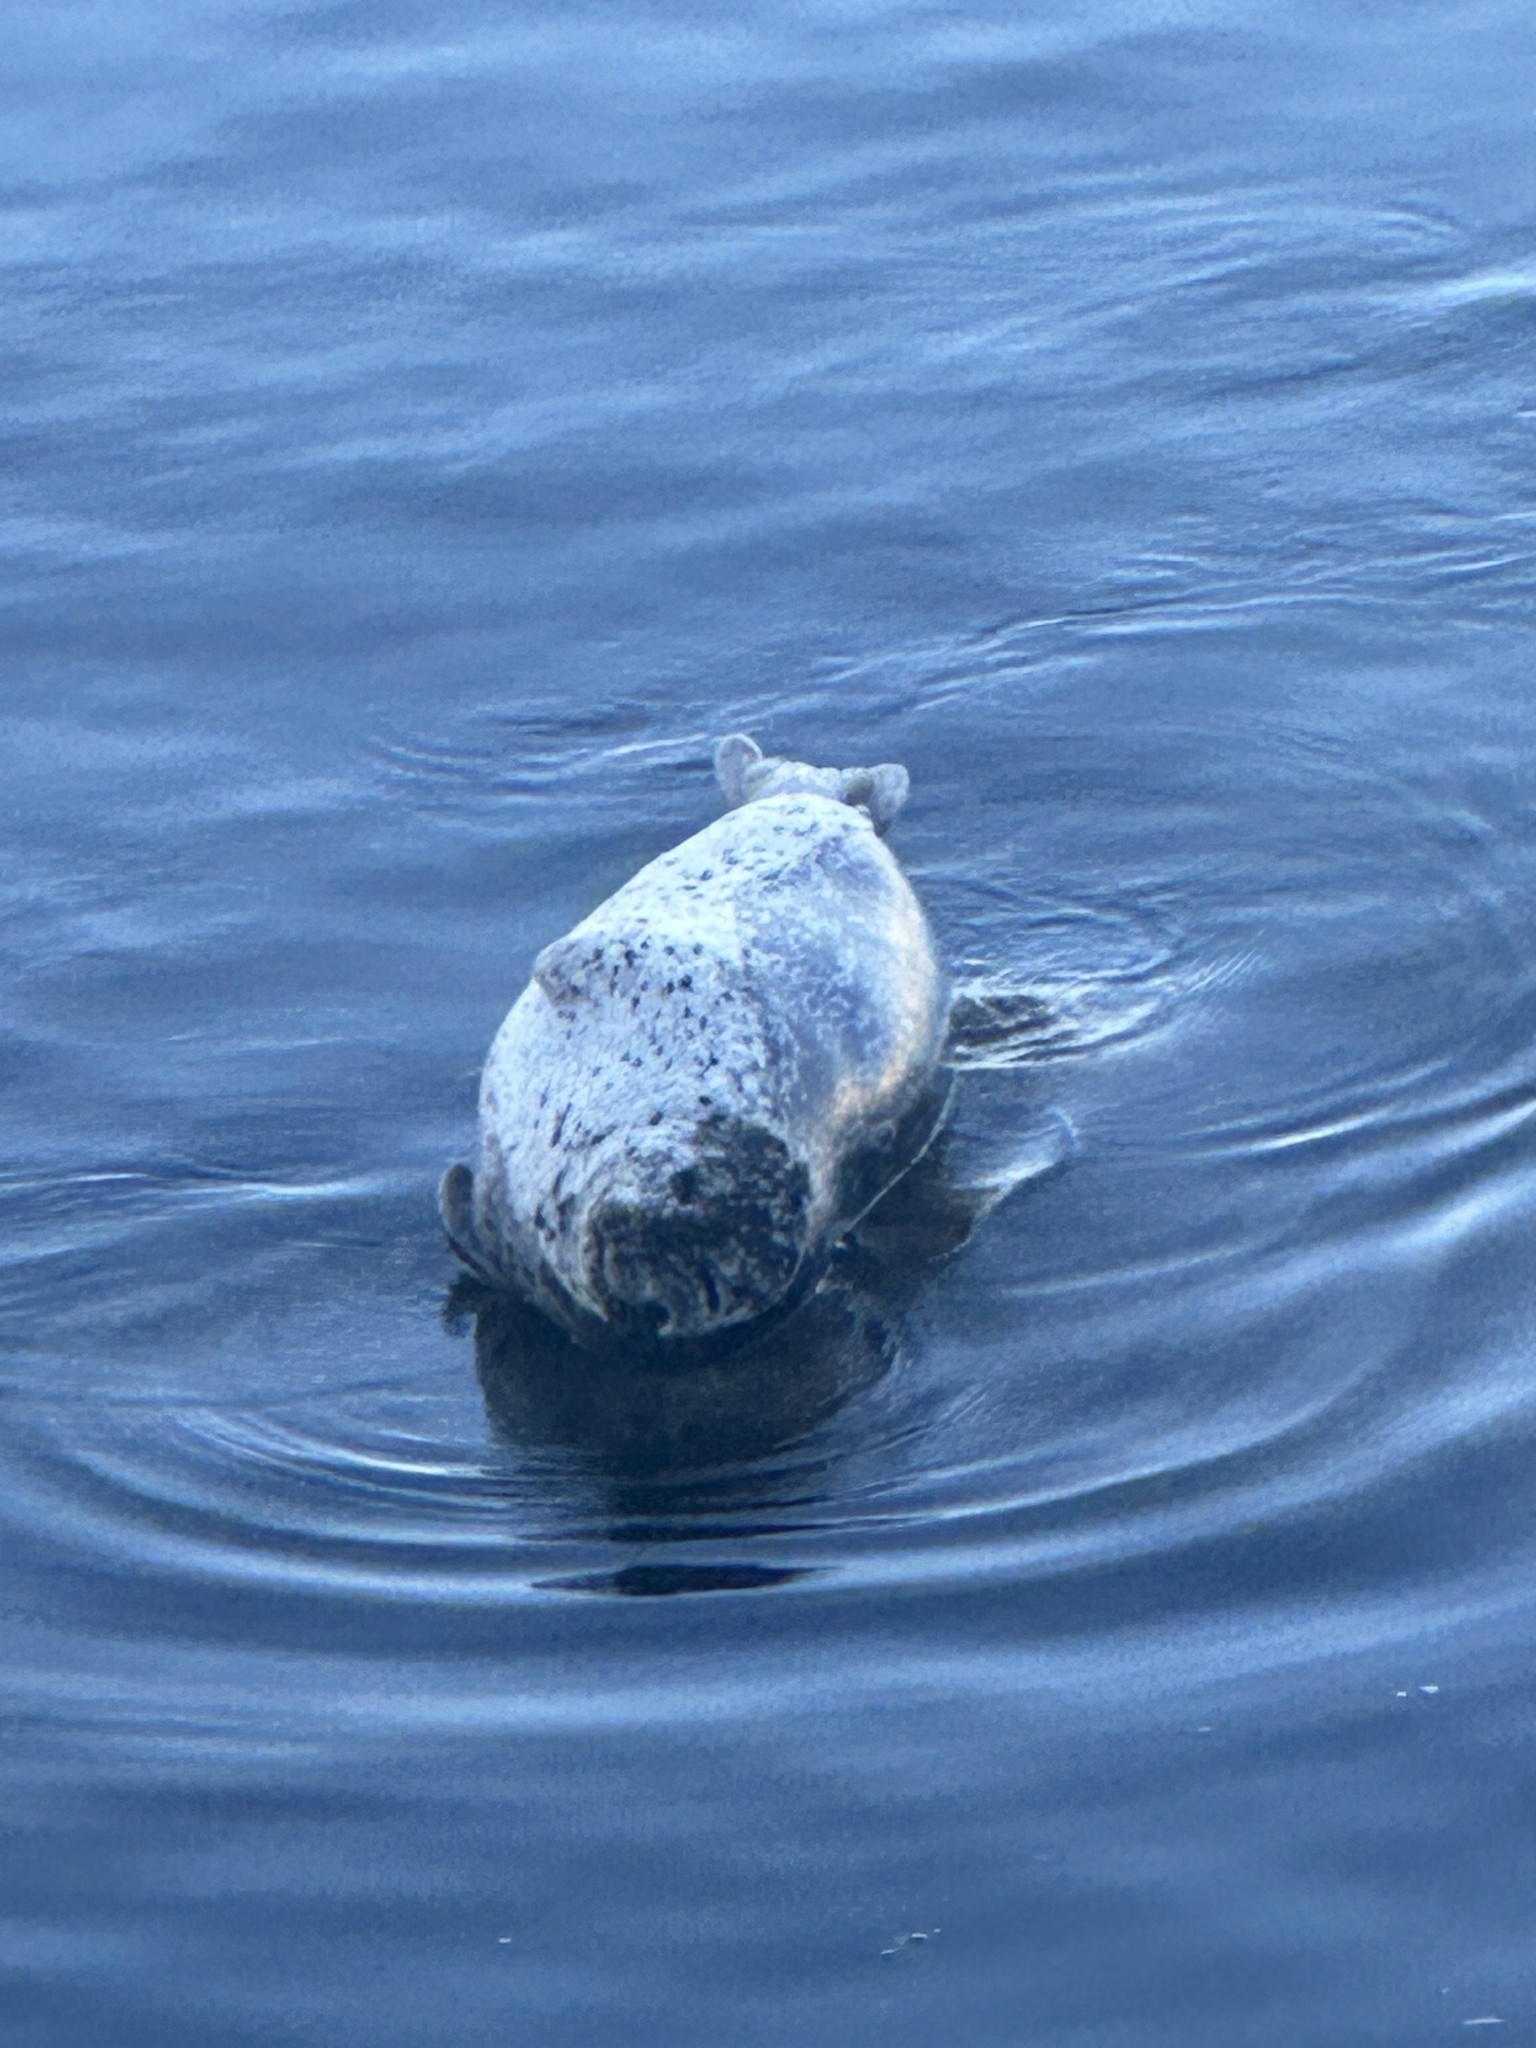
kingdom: Animalia
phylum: Chordata
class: Mammalia
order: Carnivora
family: Phocidae
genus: Phoca
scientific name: Phoca vitulina
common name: Harbor seal
